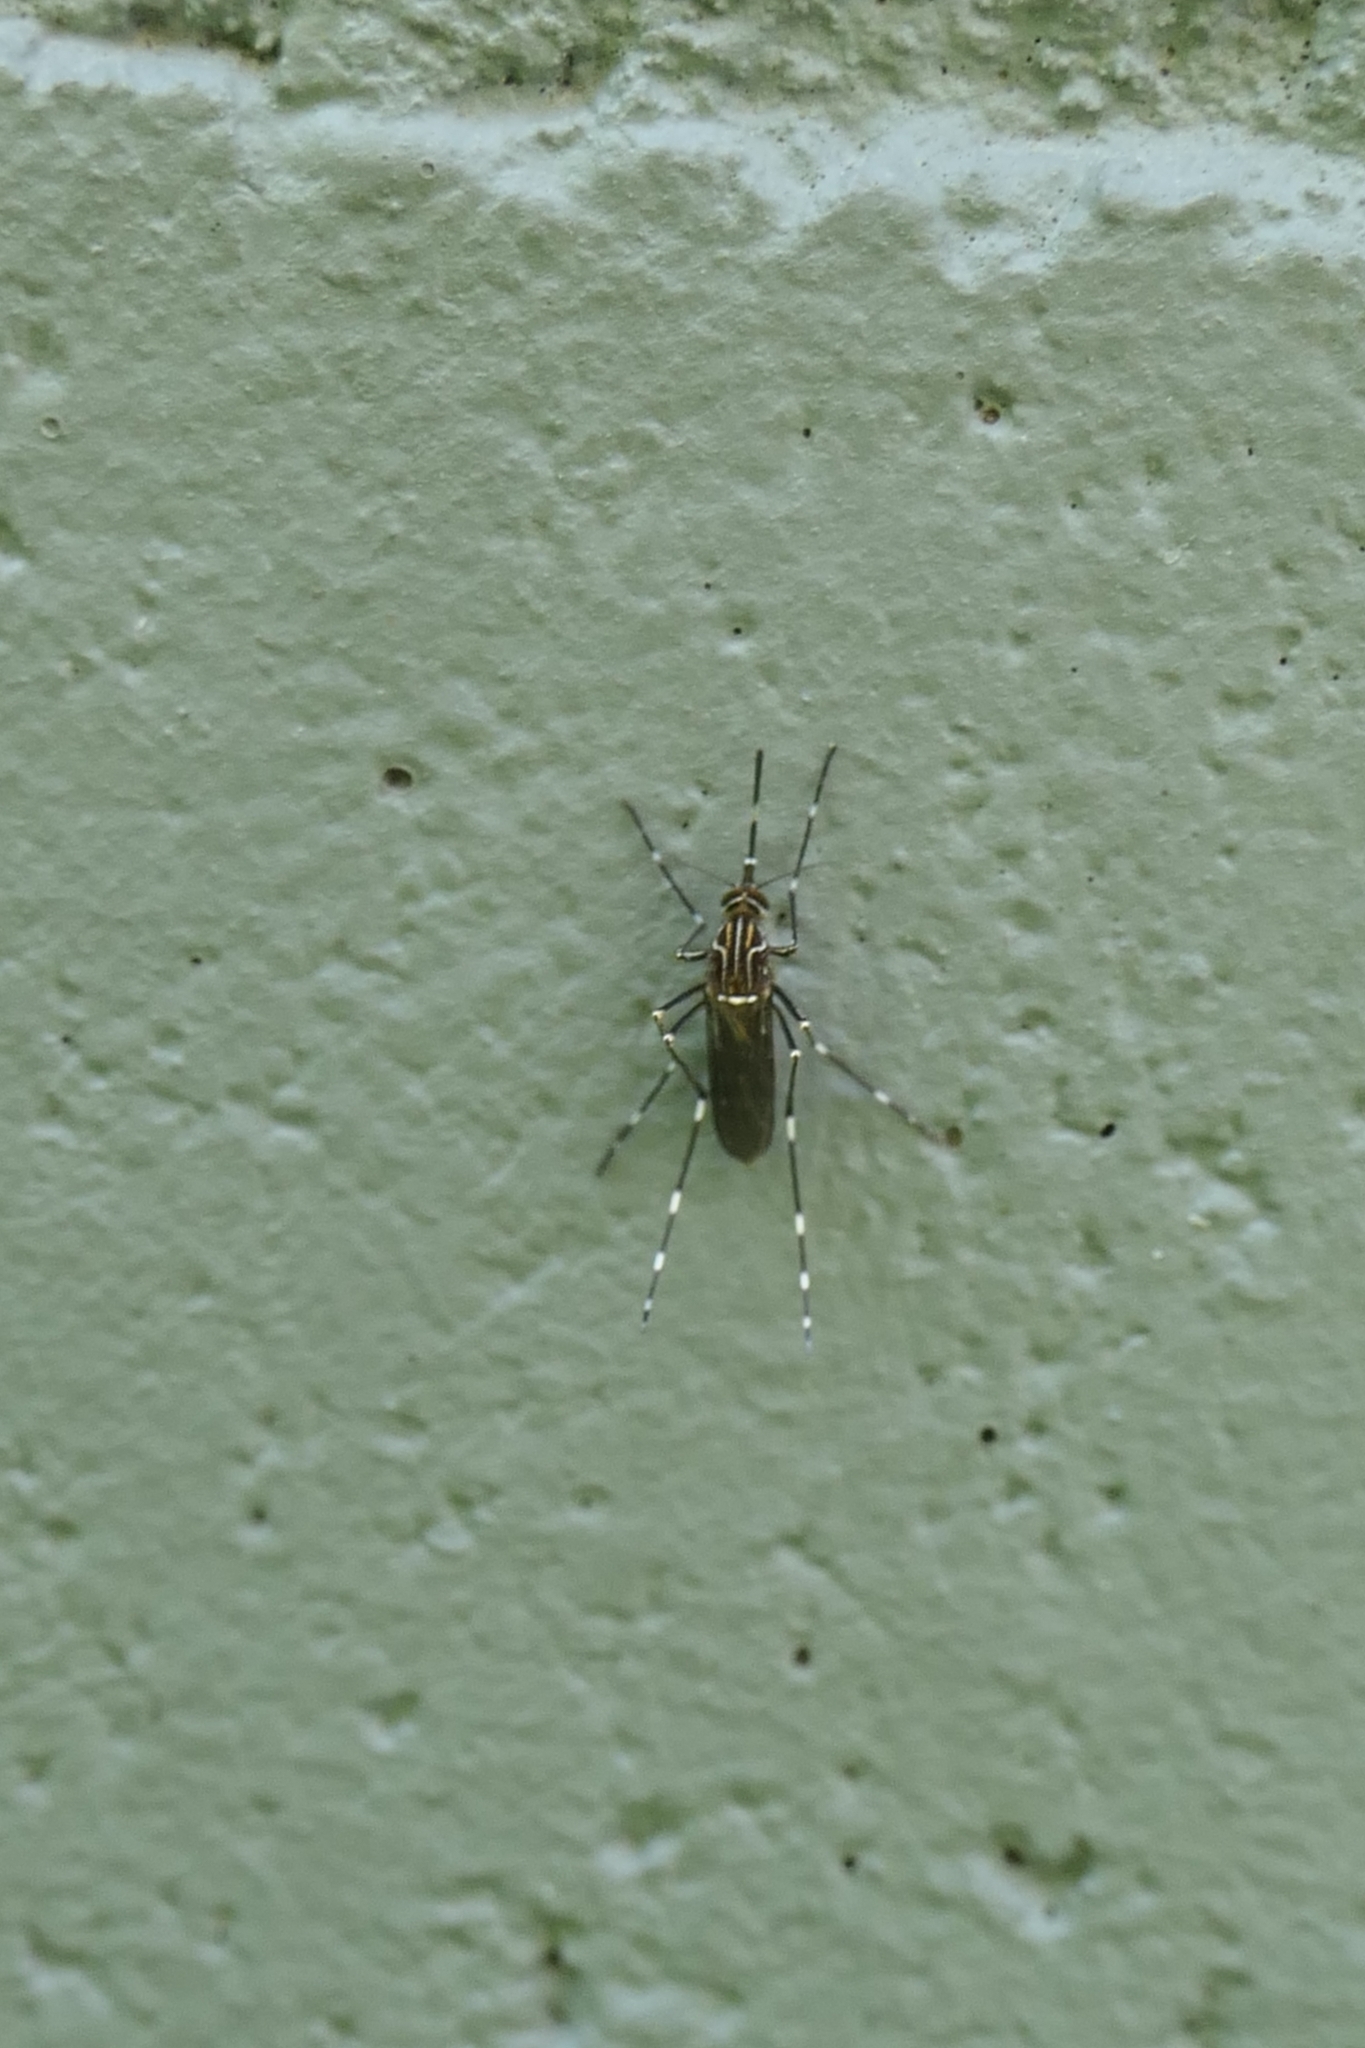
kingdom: Animalia
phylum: Arthropoda
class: Insecta
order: Diptera
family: Culicidae
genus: Aedes
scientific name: Aedes notoscriptus
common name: Australian backyard mosquito
